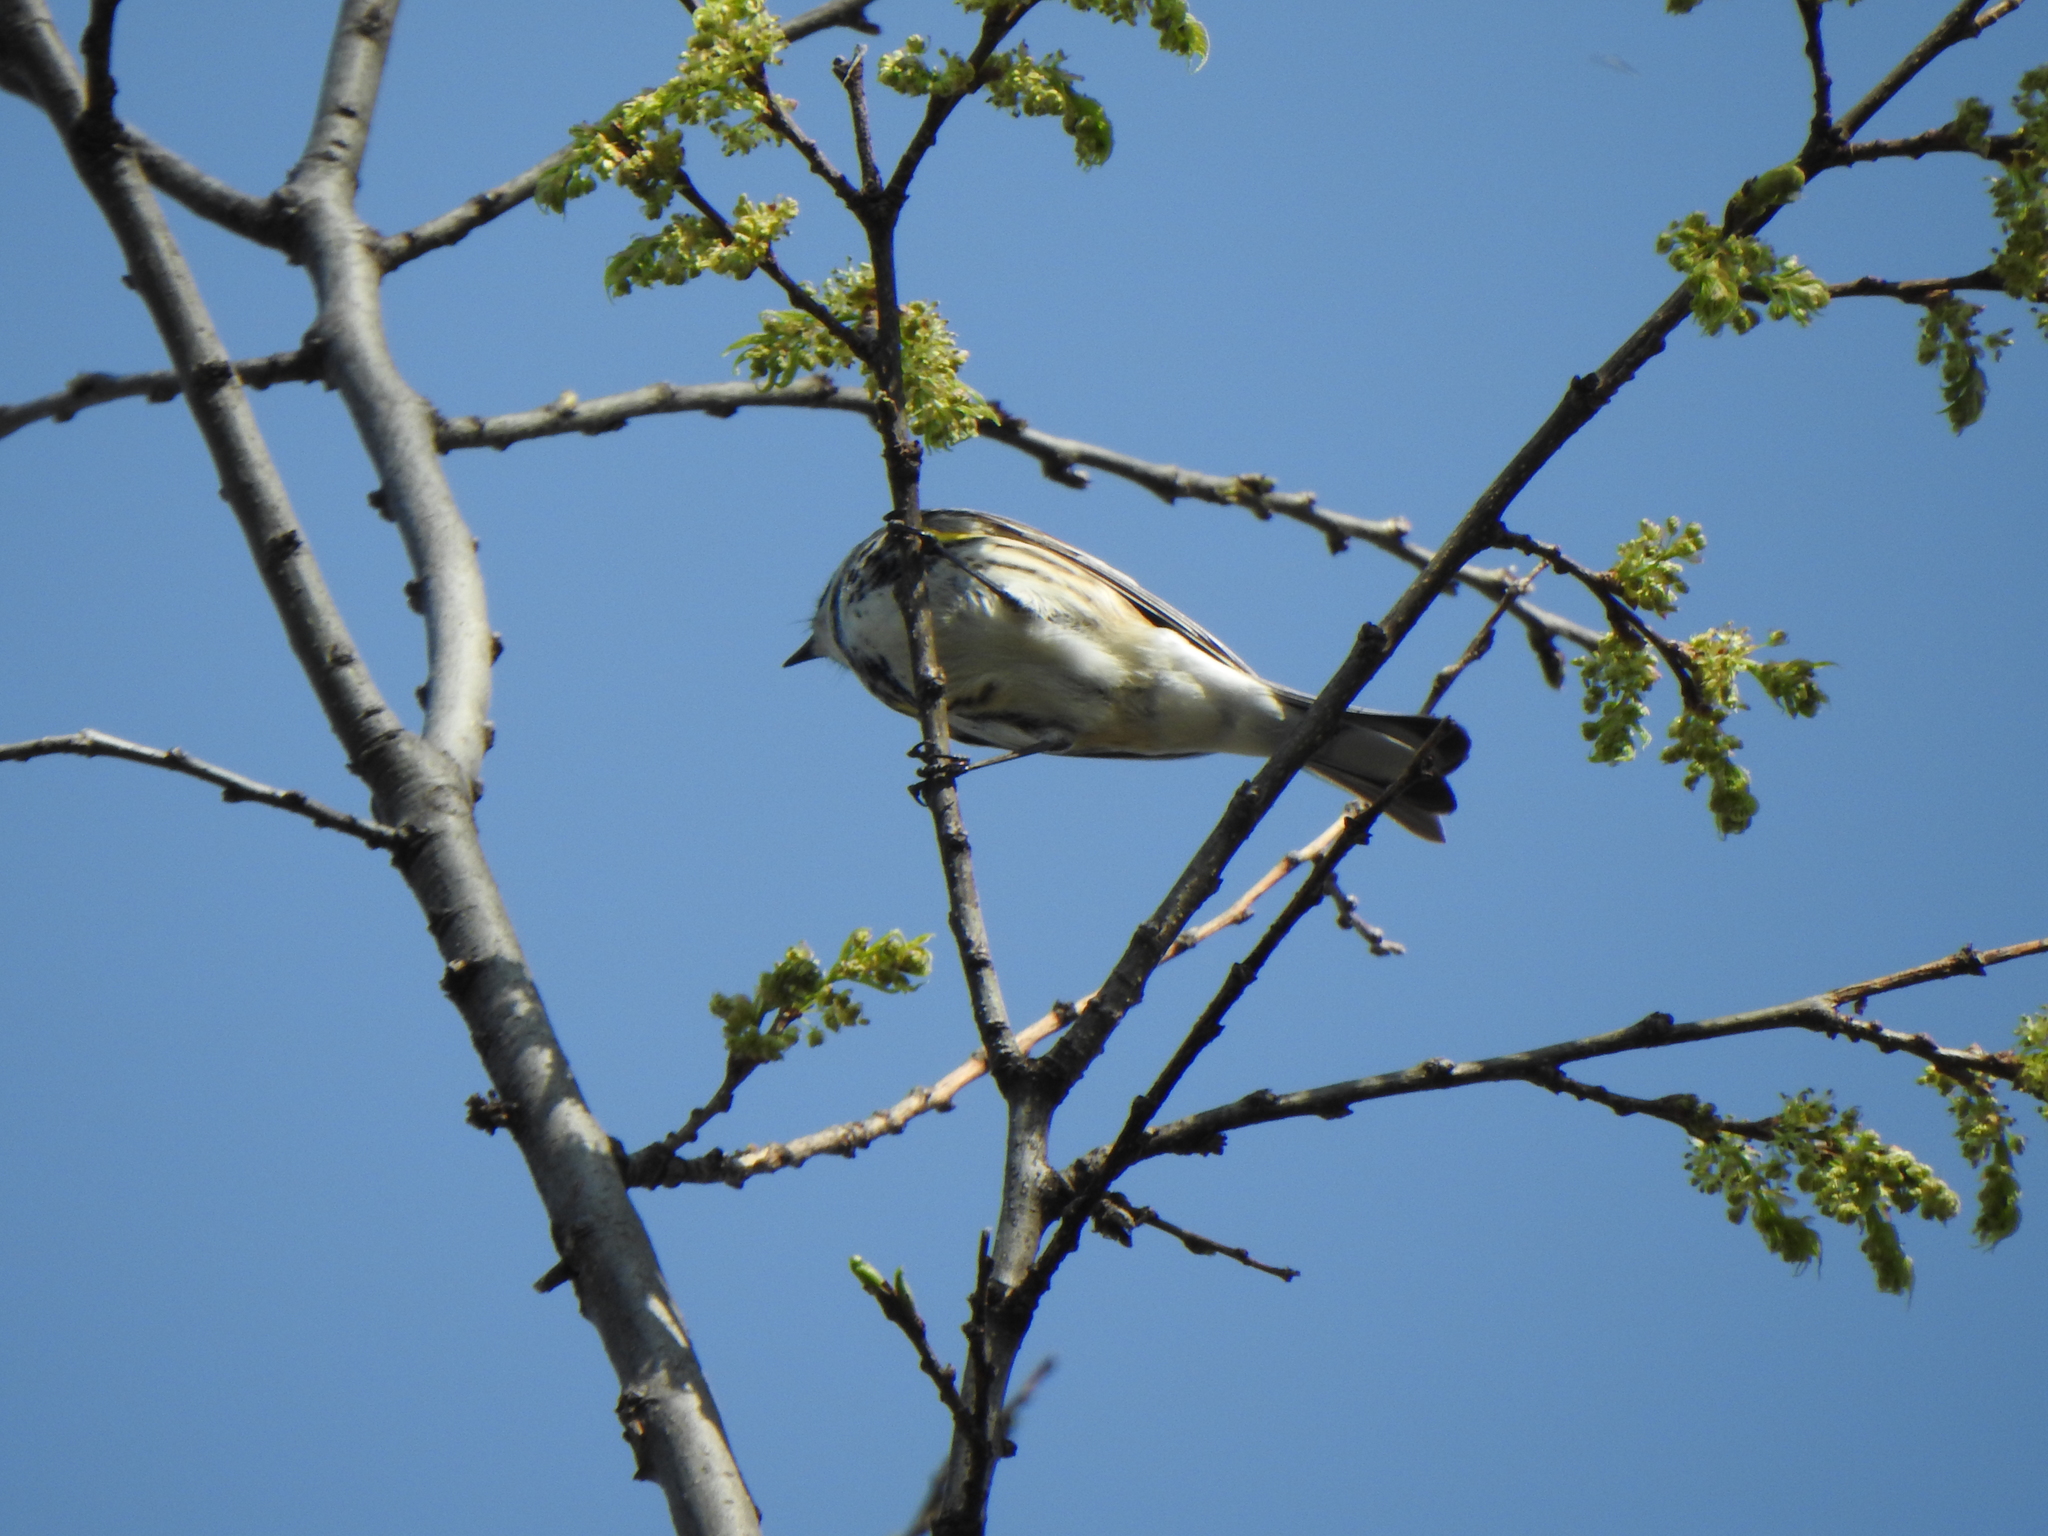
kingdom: Animalia
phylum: Chordata
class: Aves
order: Passeriformes
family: Parulidae
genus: Setophaga
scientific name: Setophaga coronata
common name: Myrtle warbler
